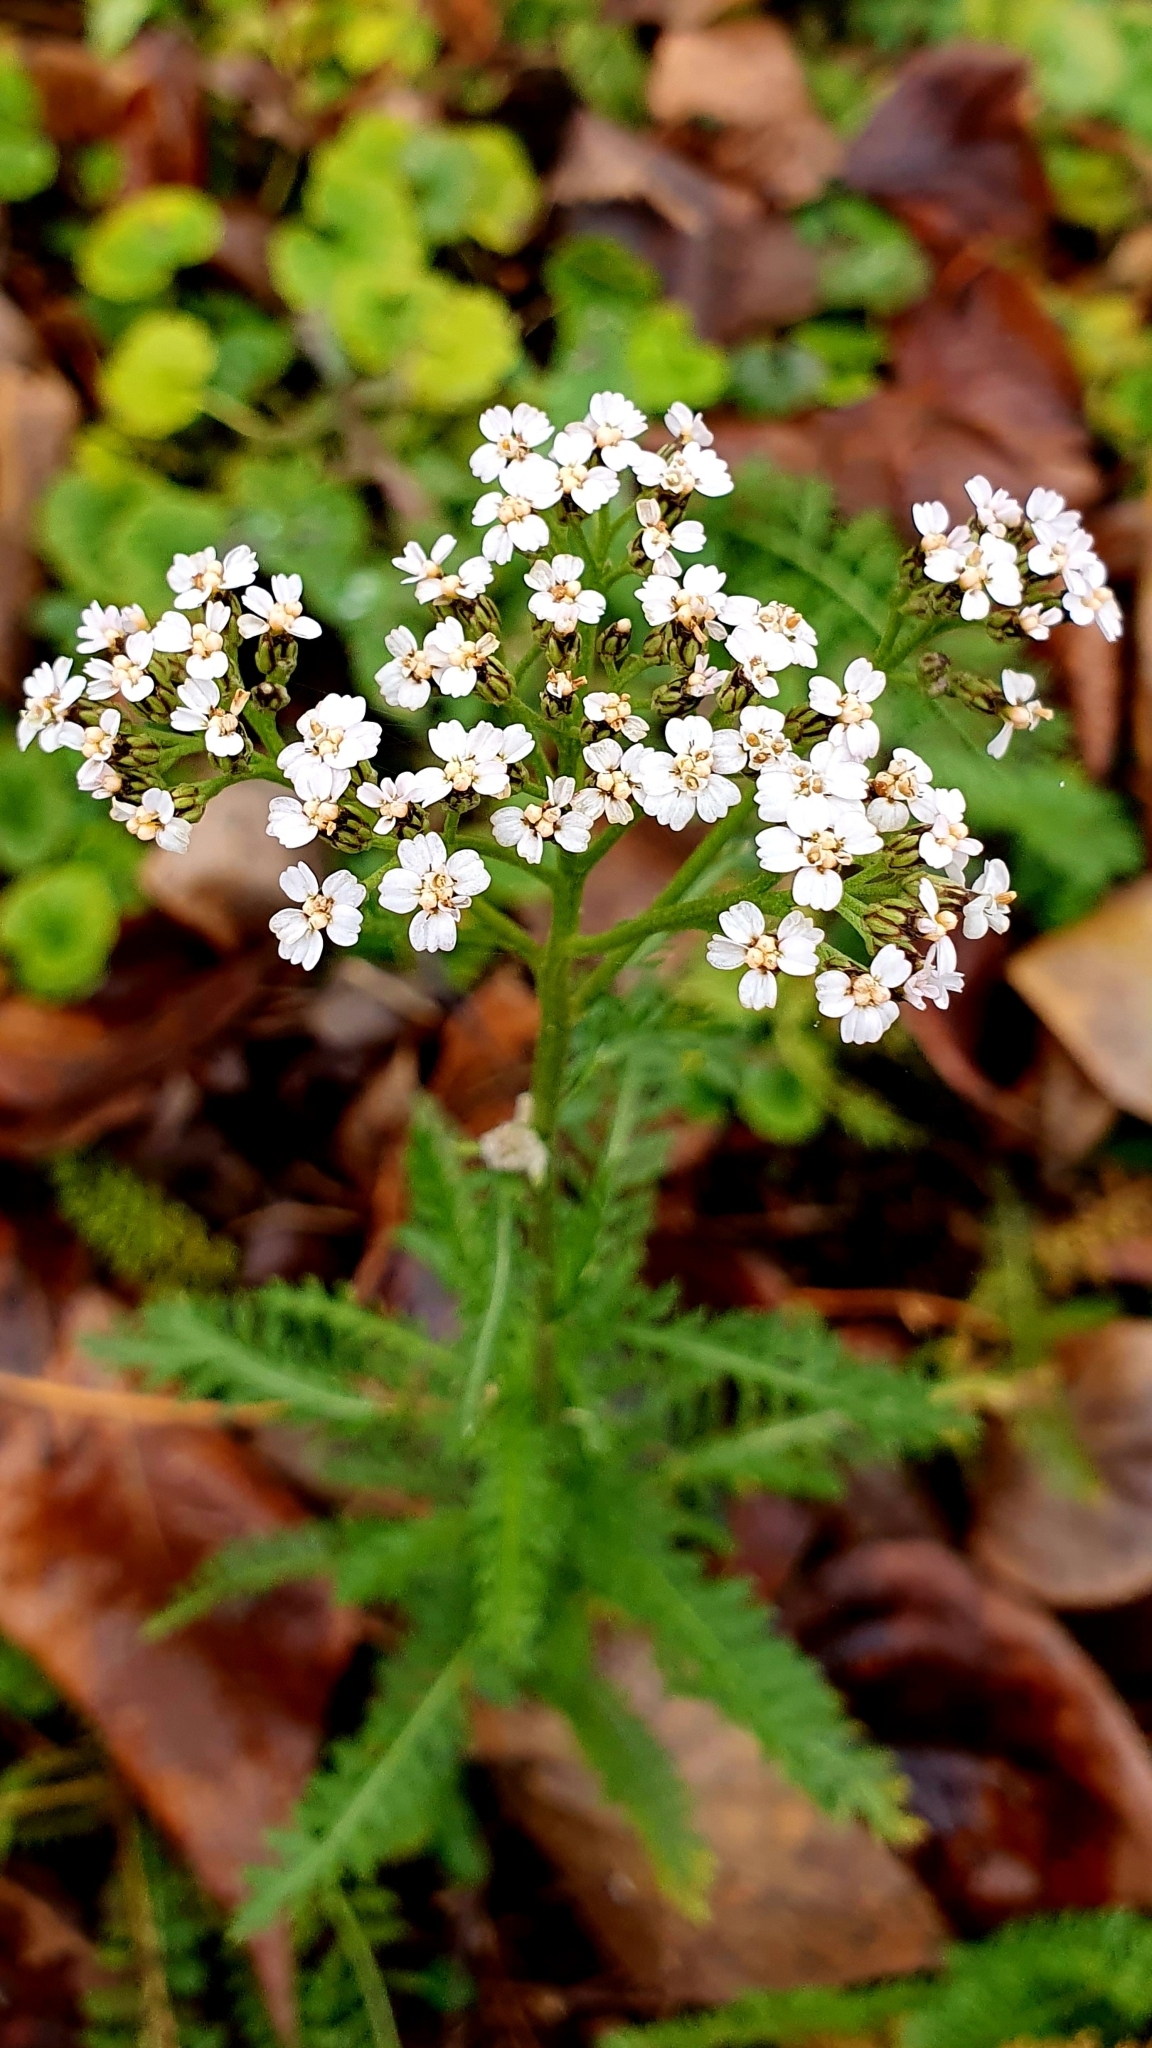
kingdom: Plantae
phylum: Tracheophyta
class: Magnoliopsida
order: Asterales
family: Asteraceae
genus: Achillea
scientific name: Achillea millefolium
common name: Yarrow
